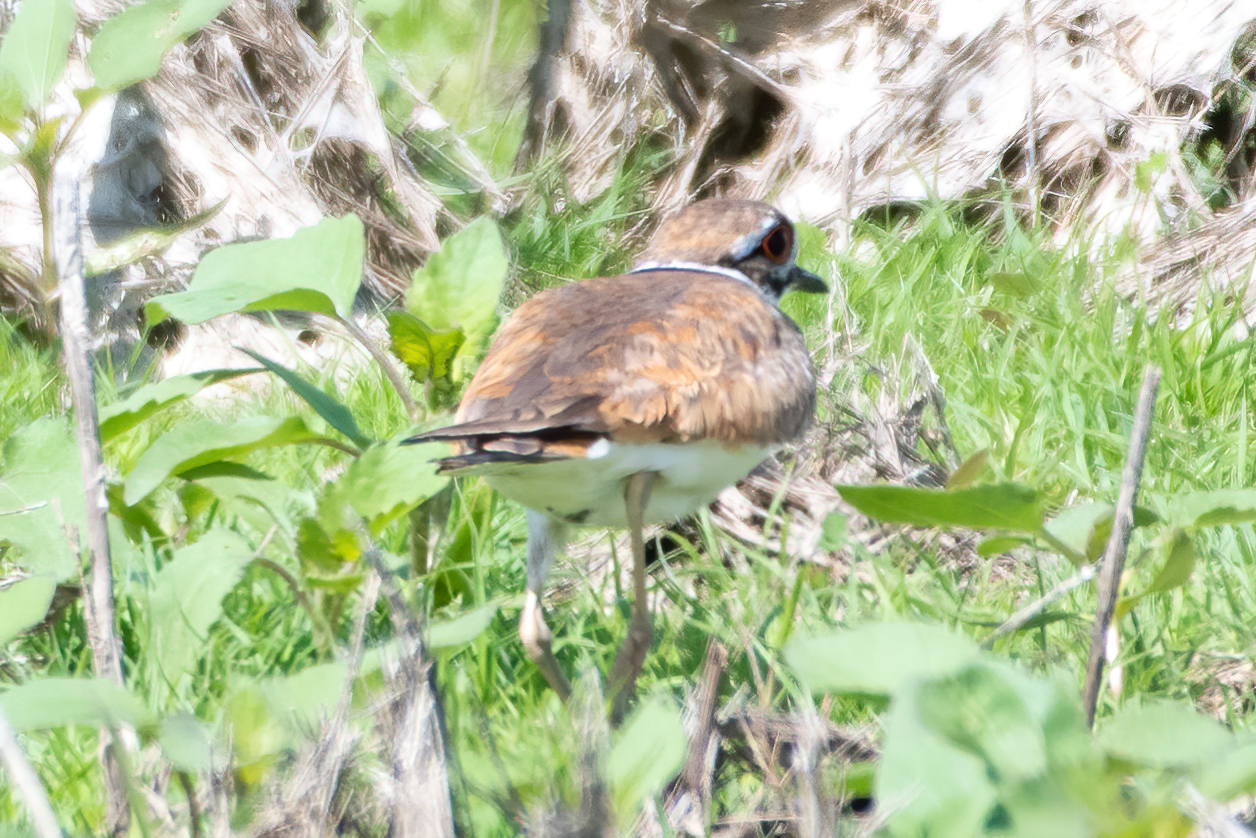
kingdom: Animalia
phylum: Chordata
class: Aves
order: Charadriiformes
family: Charadriidae
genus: Charadrius
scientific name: Charadrius vociferus
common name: Killdeer
